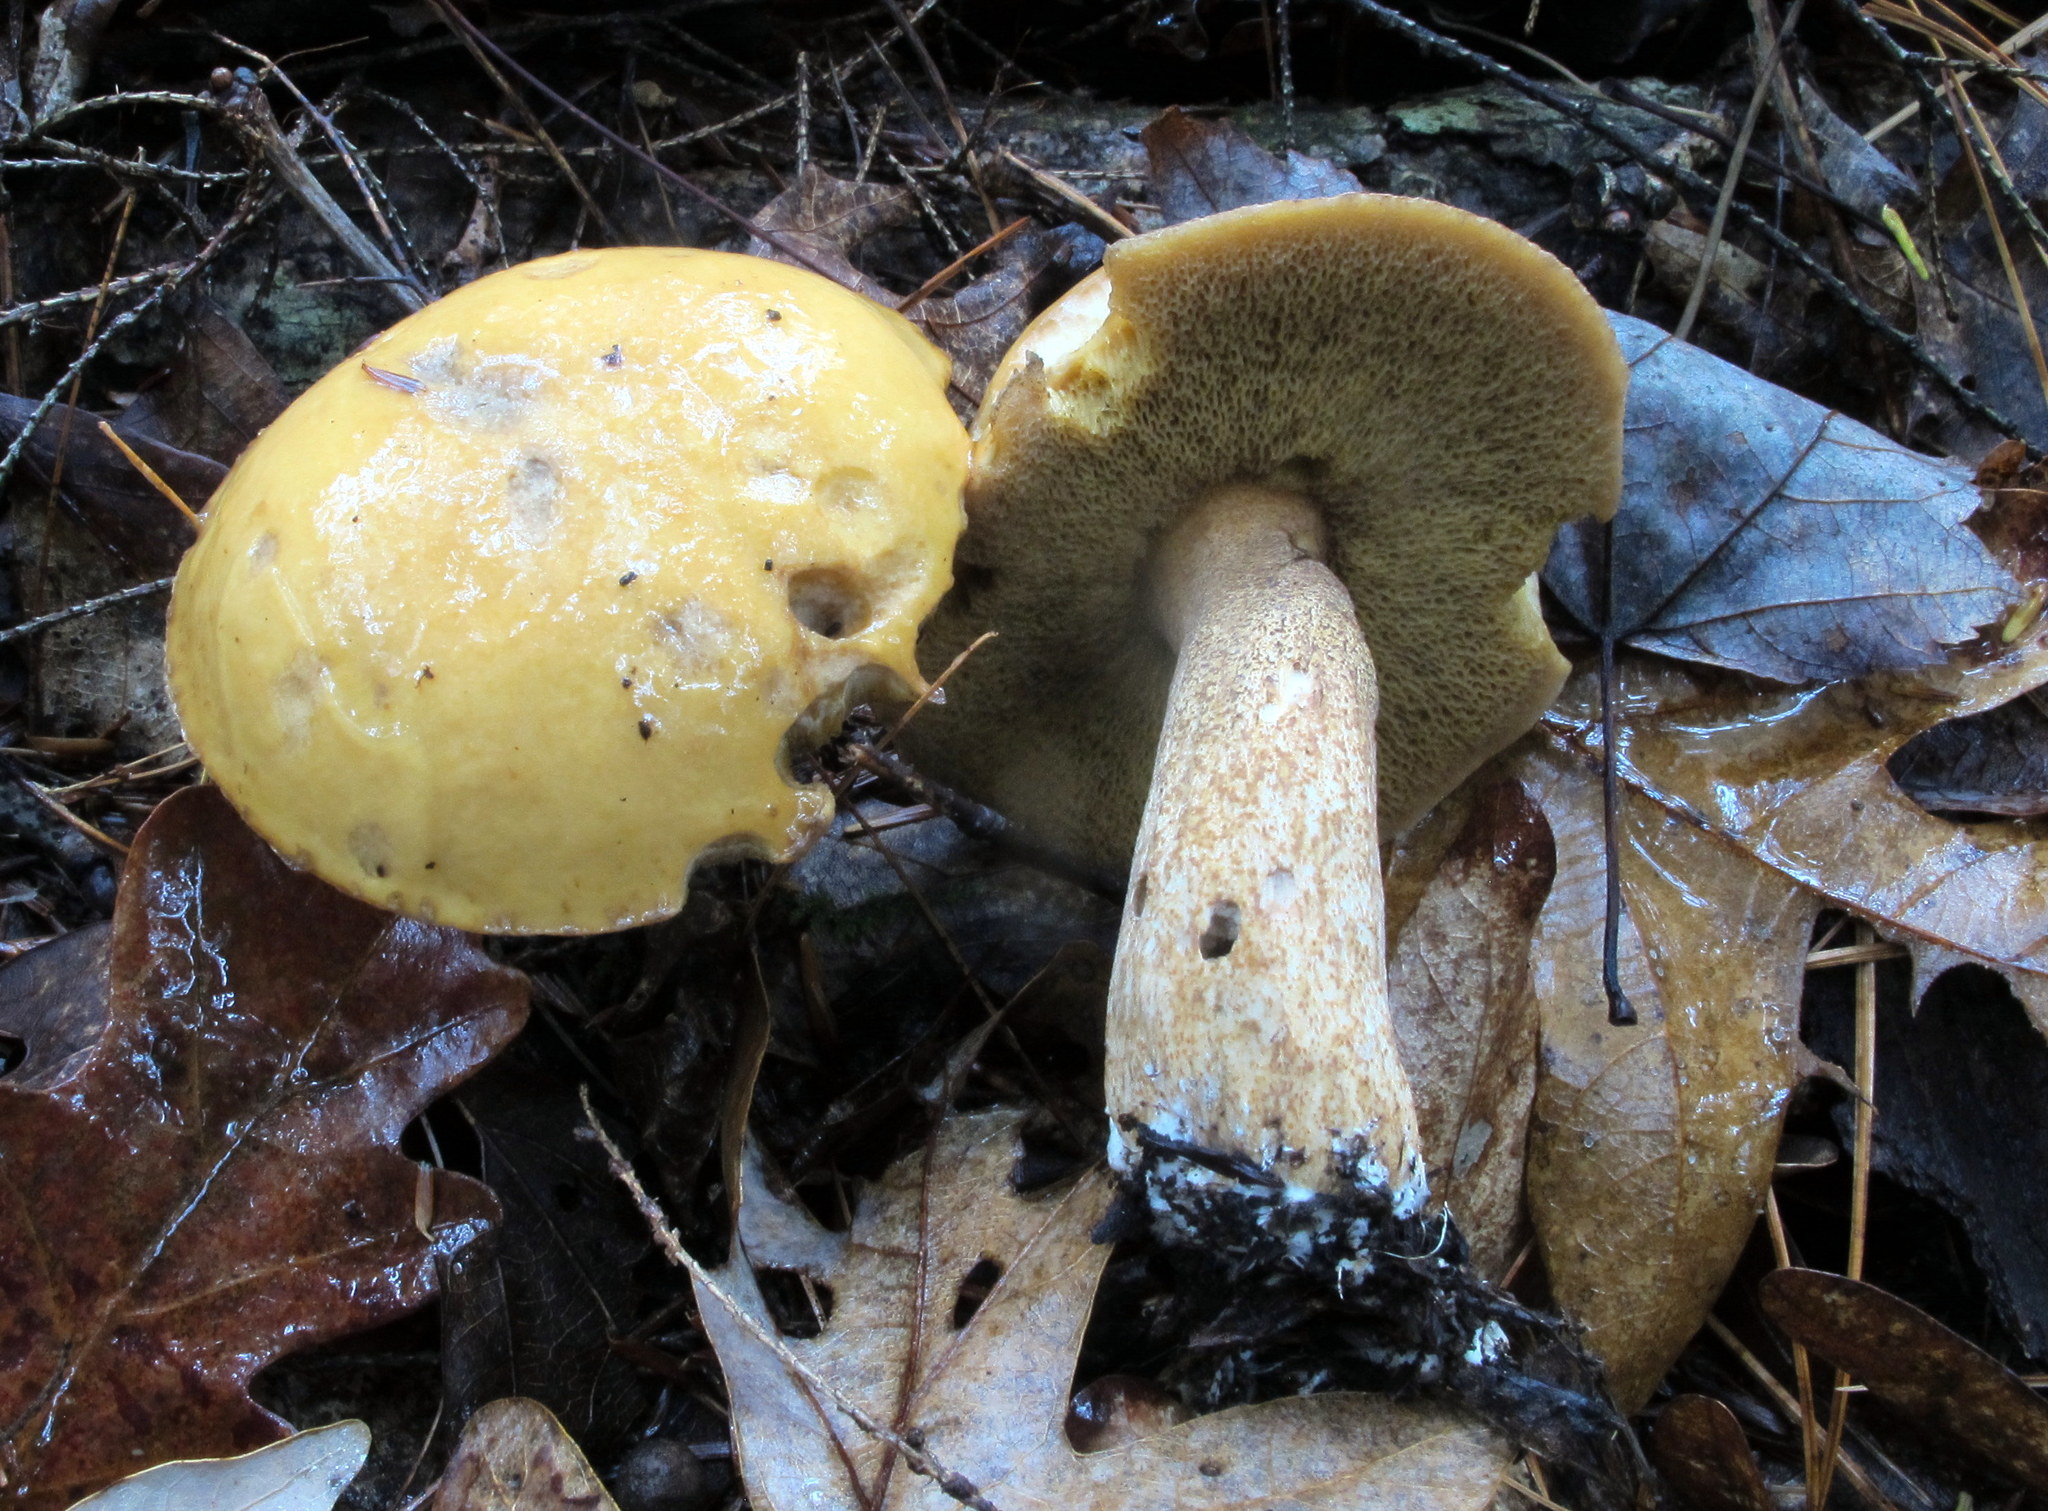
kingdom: Fungi
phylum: Basidiomycota
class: Agaricomycetes
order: Boletales
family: Suillaceae
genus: Suillus
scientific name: Suillus punctipes
